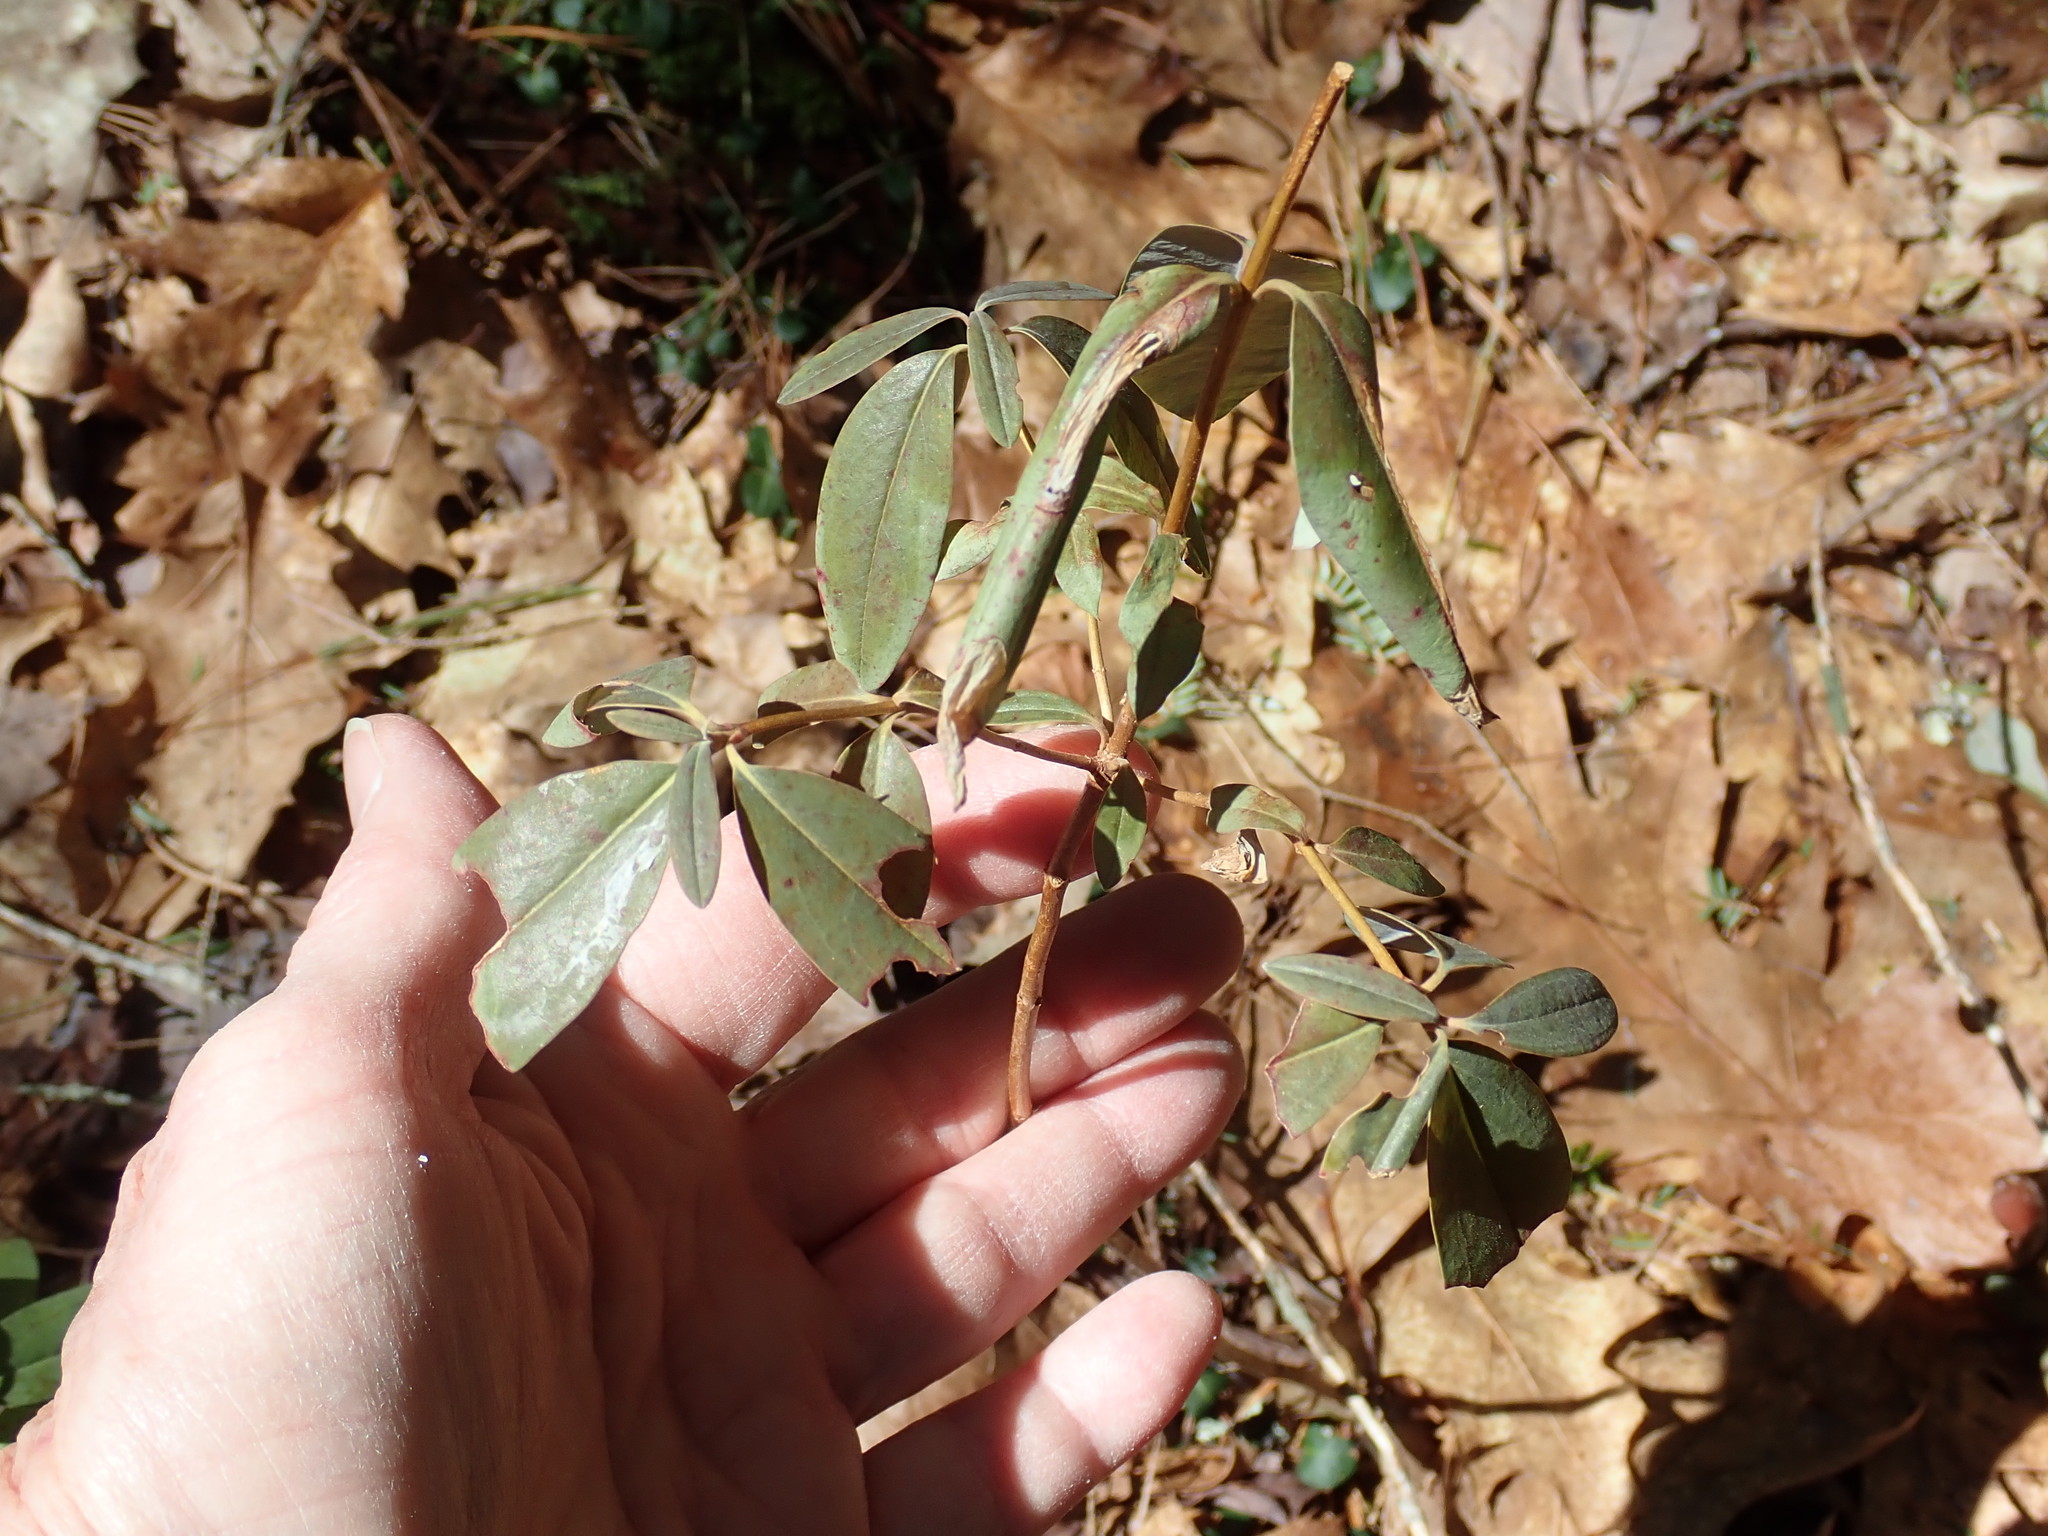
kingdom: Plantae
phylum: Tracheophyta
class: Magnoliopsida
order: Ericales
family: Ericaceae
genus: Kalmia
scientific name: Kalmia angustifolia
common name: Sheep-laurel
